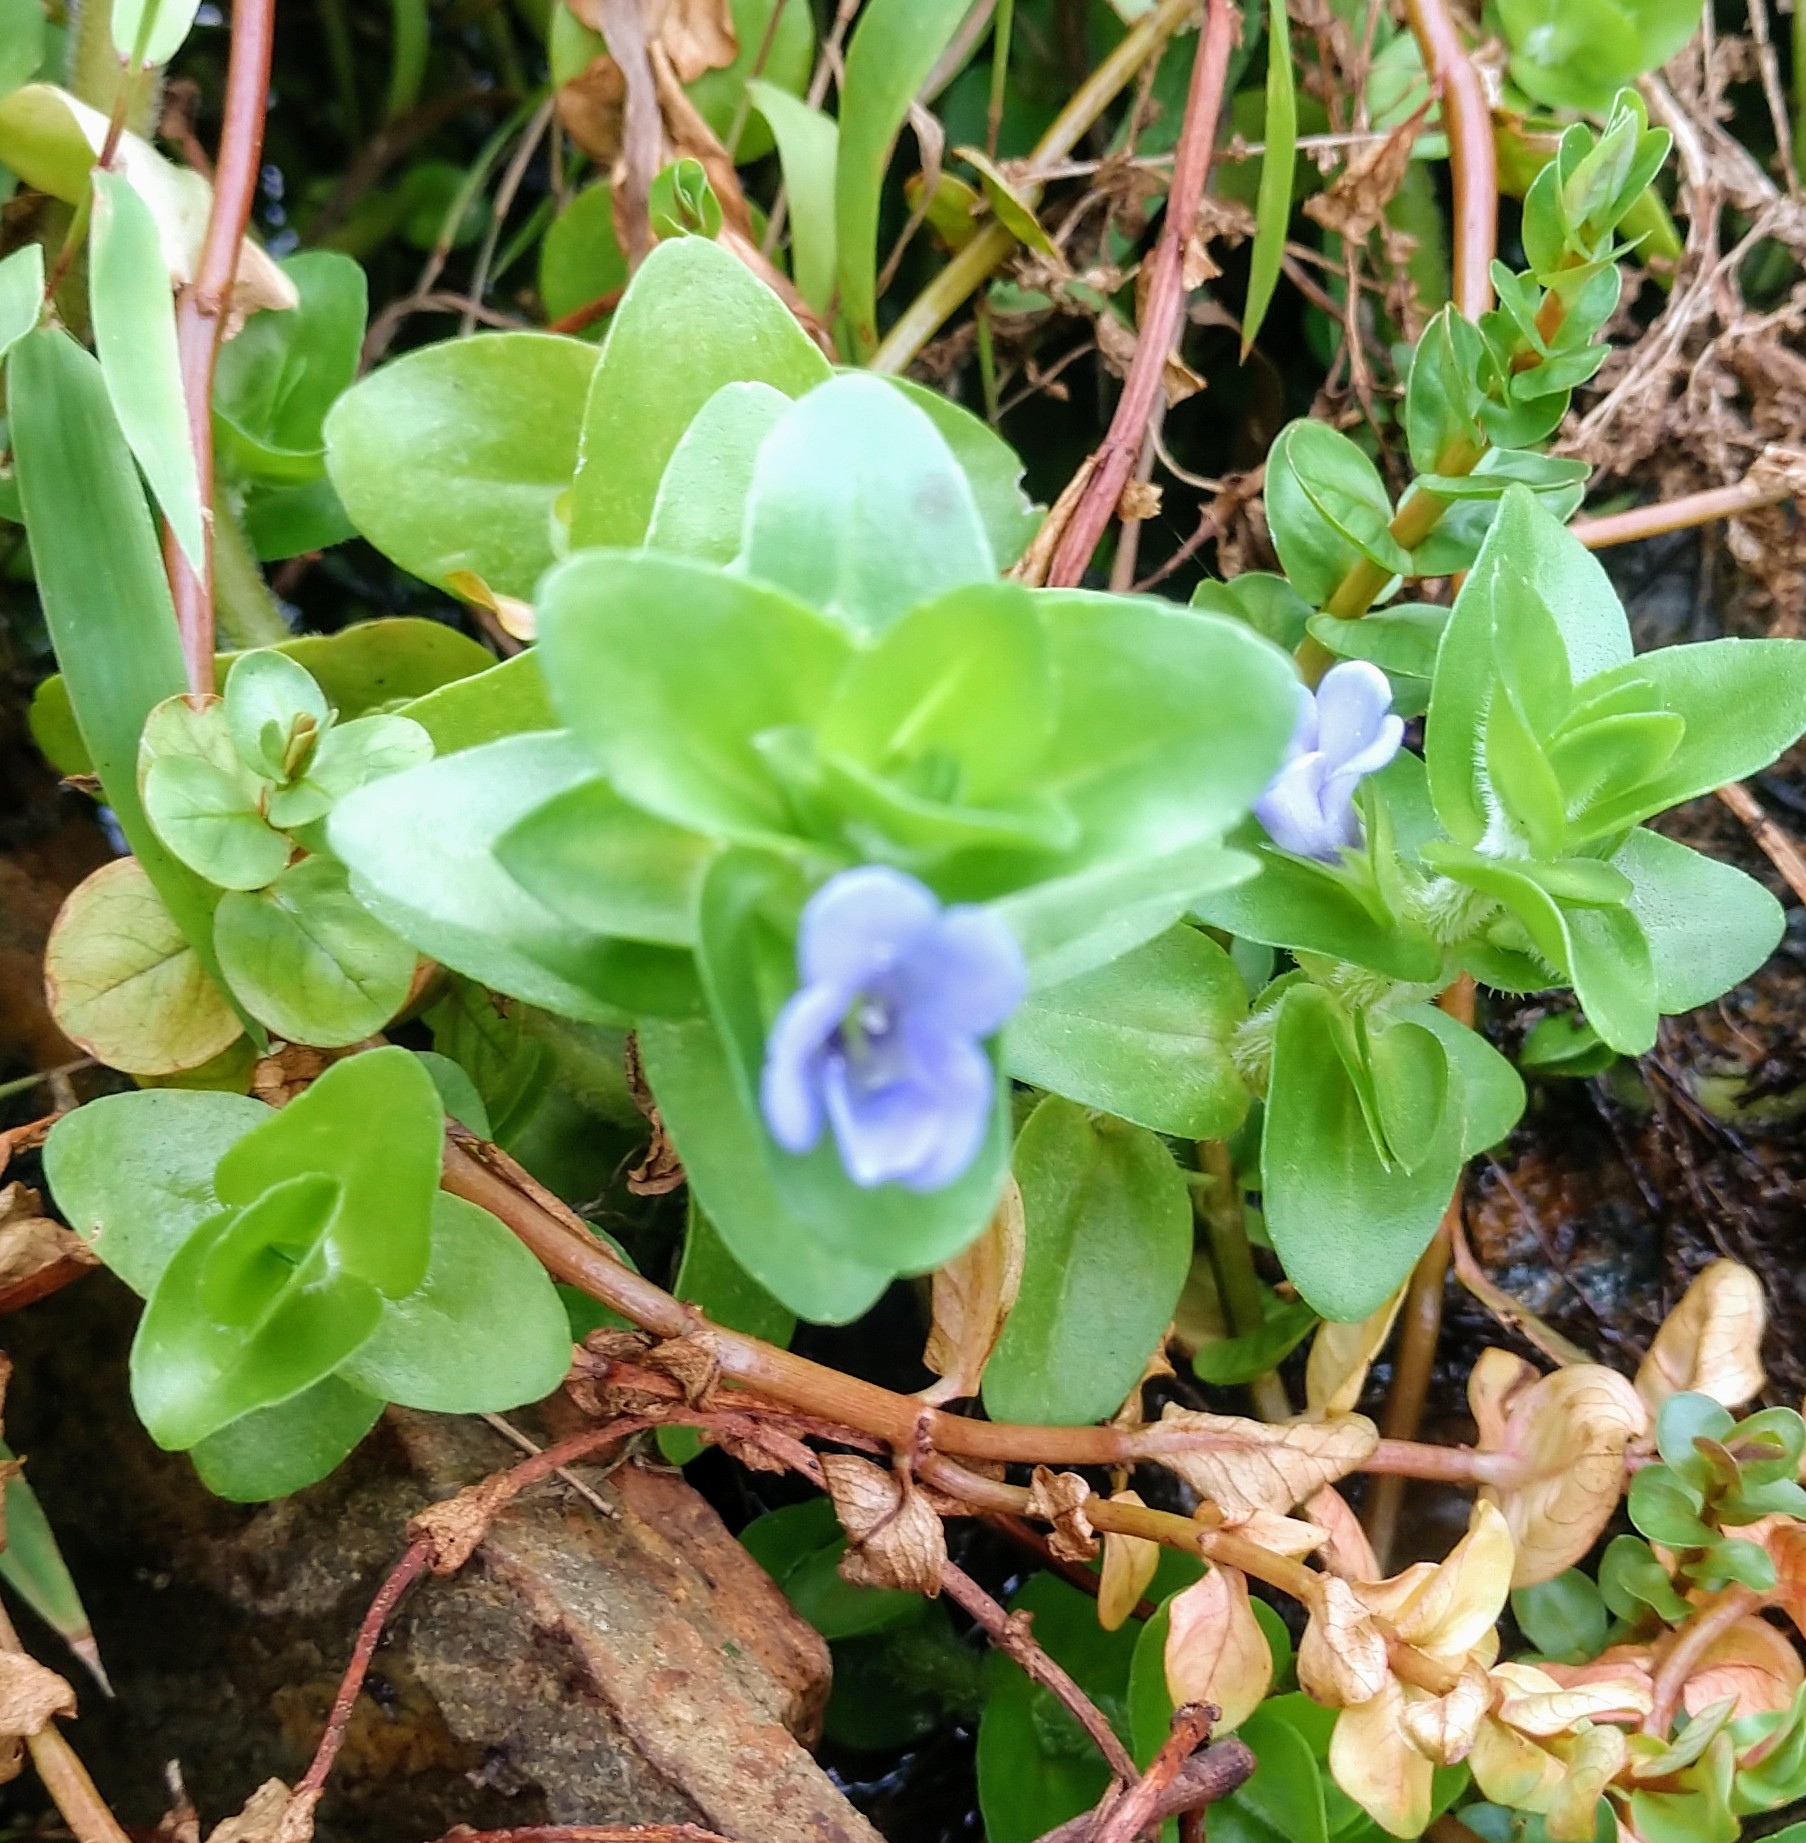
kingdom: Plantae
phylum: Tracheophyta
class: Magnoliopsida
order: Lamiales
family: Plantaginaceae
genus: Bacopa
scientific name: Bacopa caroliniana
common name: Lemon bacopa
